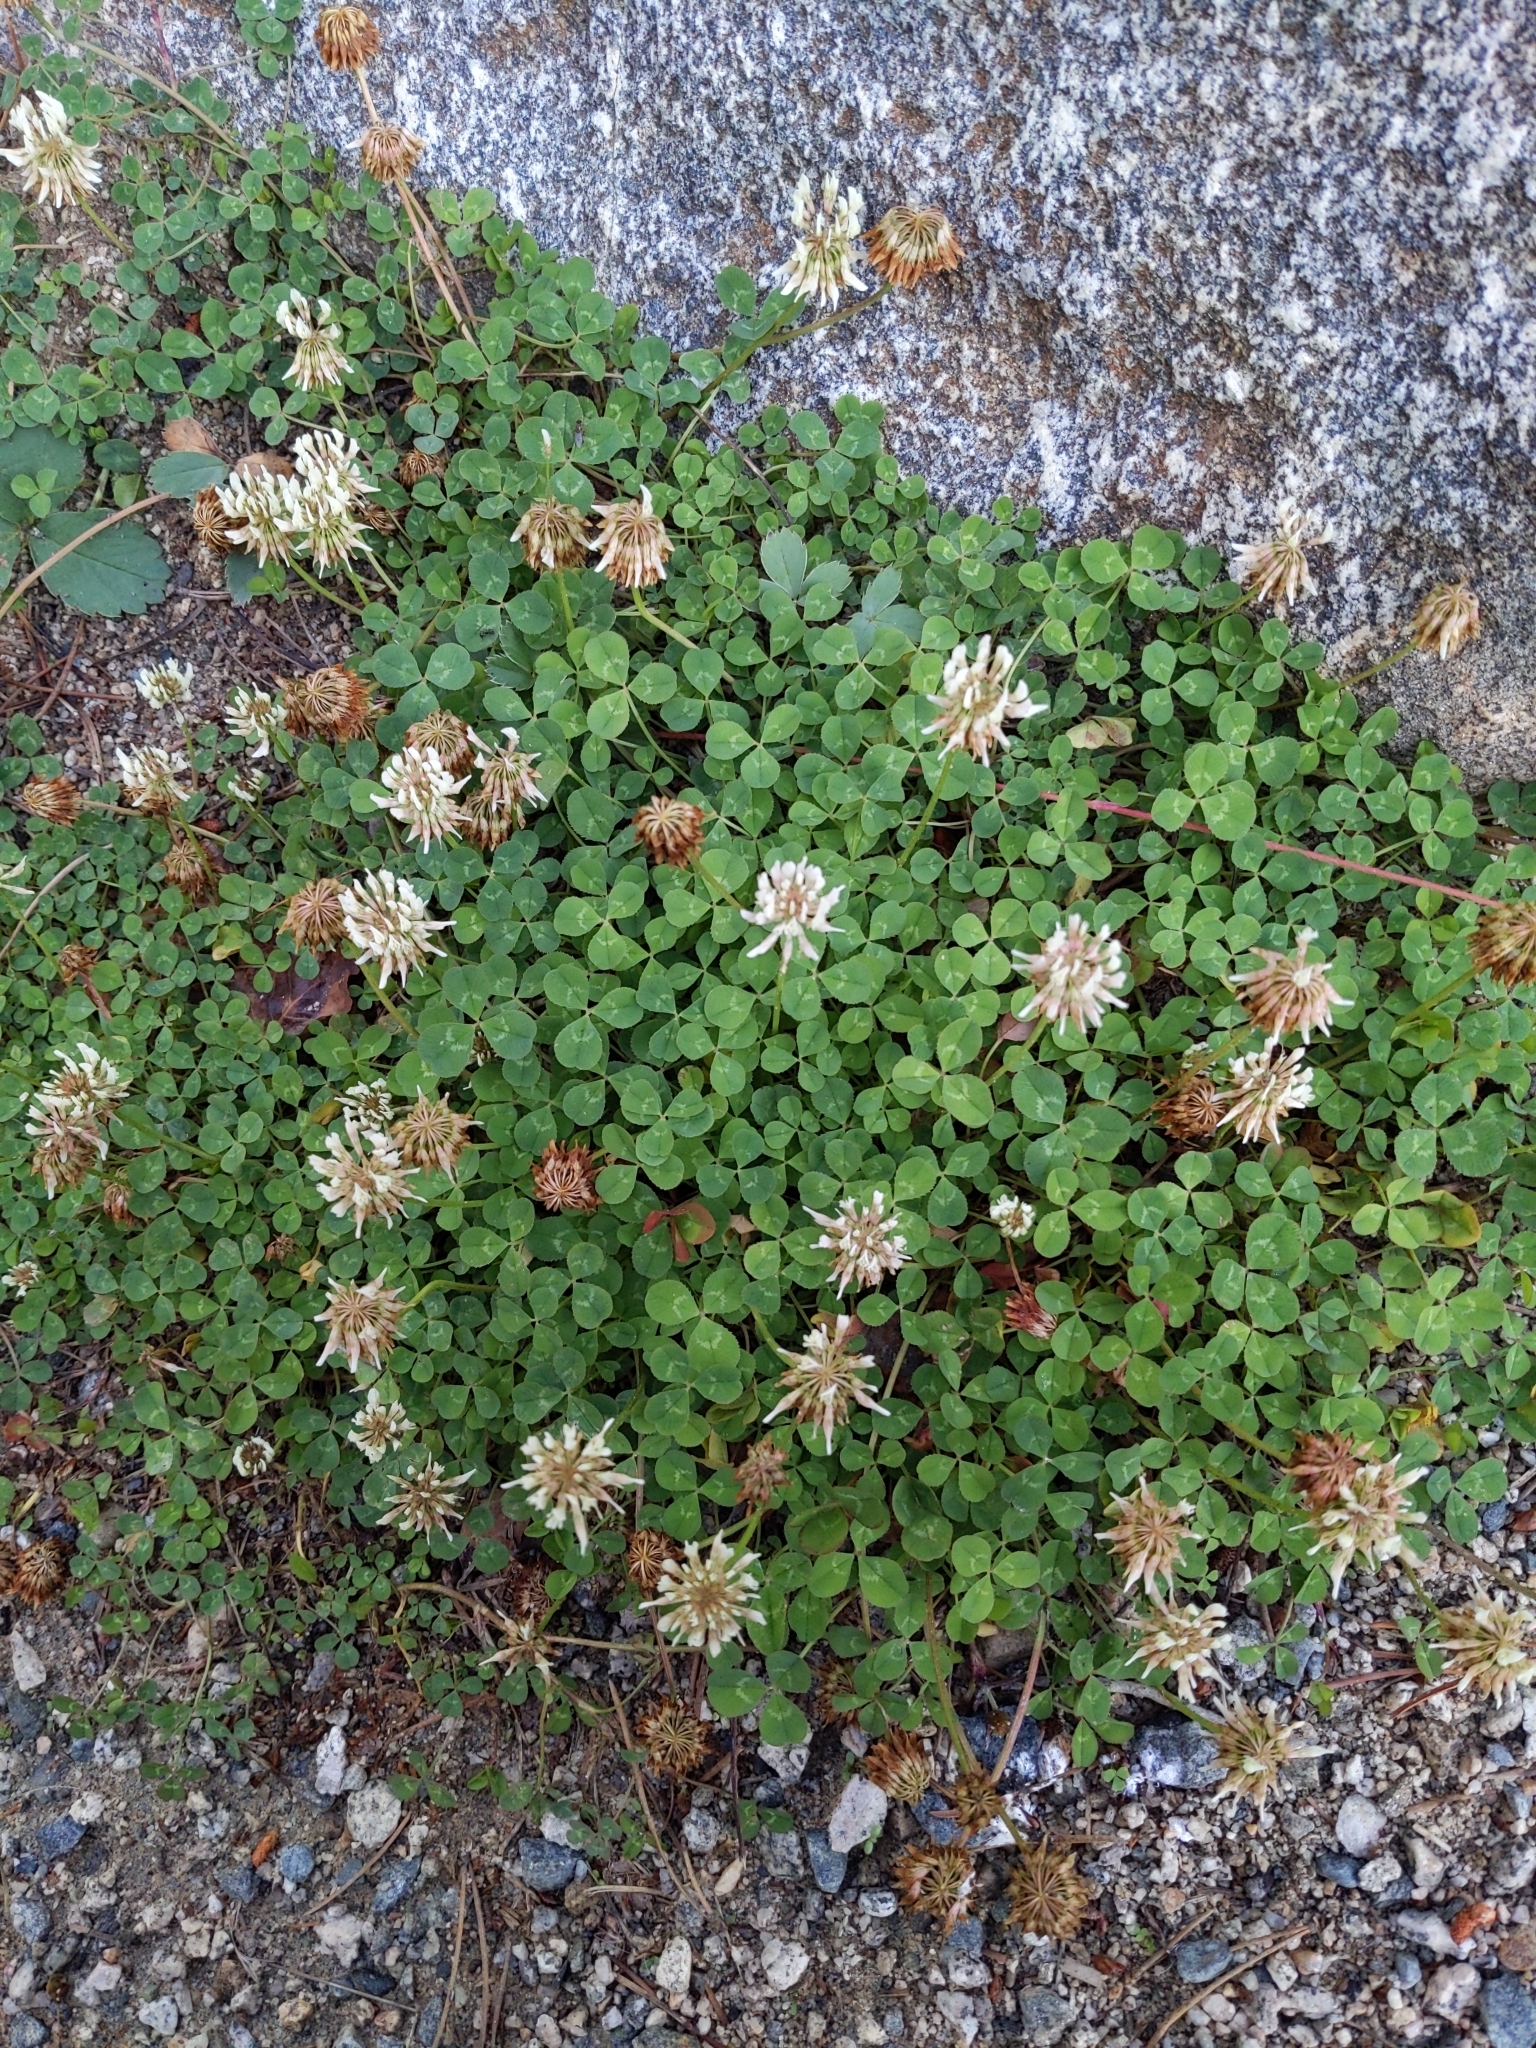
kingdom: Plantae
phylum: Tracheophyta
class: Magnoliopsida
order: Fabales
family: Fabaceae
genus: Trifolium
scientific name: Trifolium repens
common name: White clover
